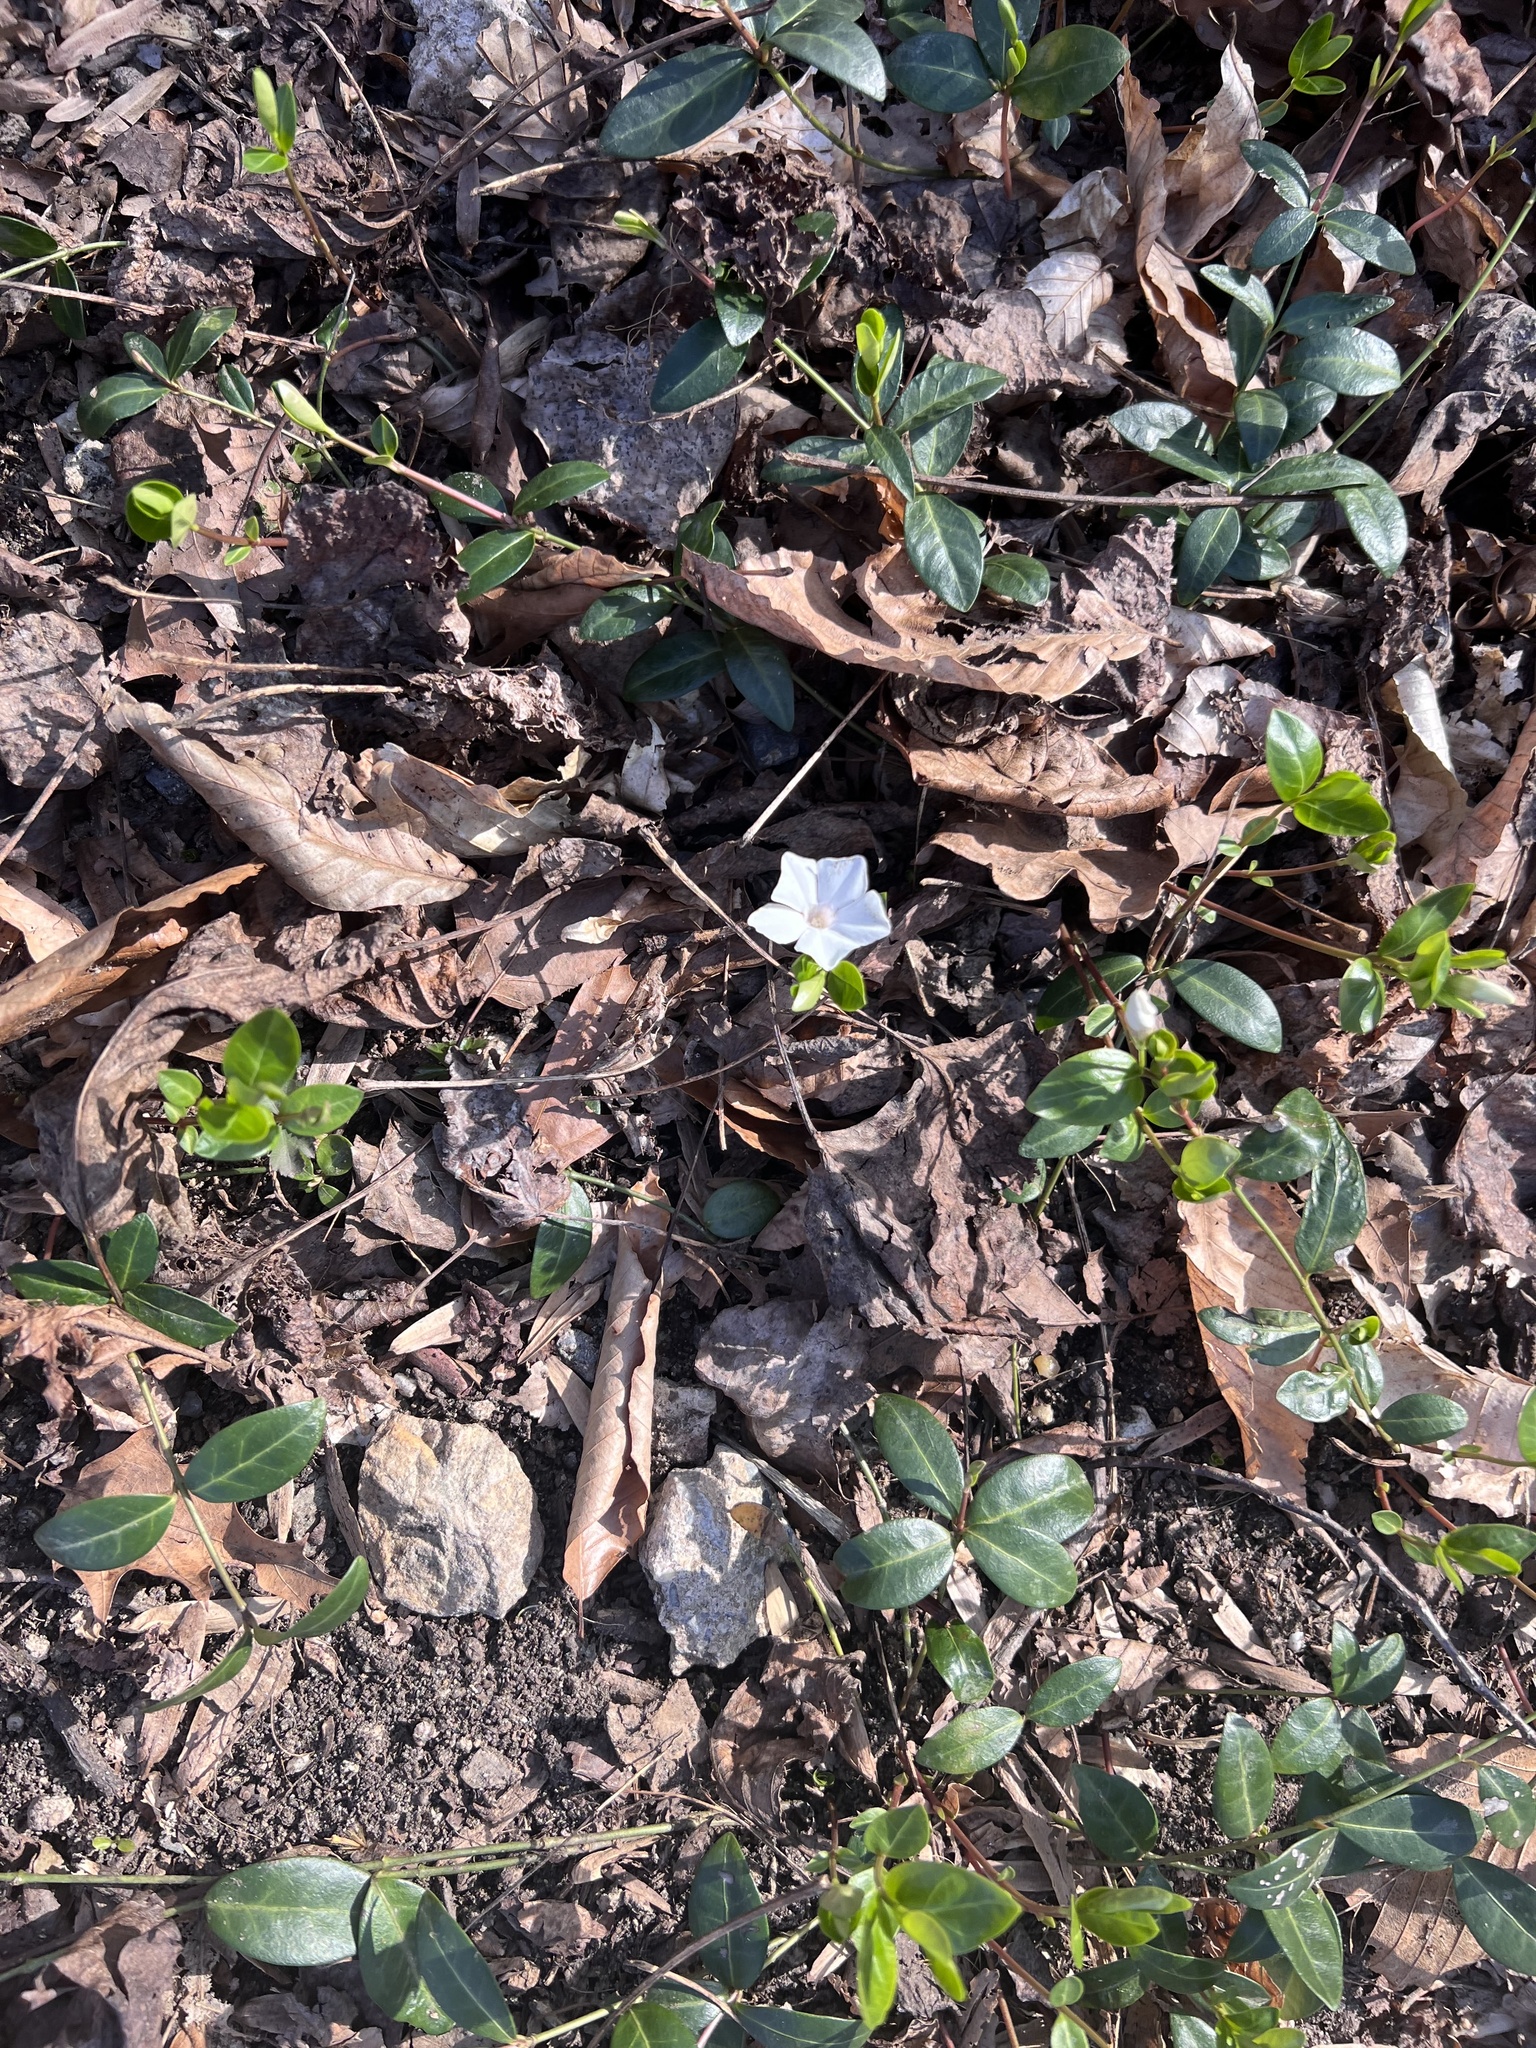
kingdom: Plantae
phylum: Tracheophyta
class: Magnoliopsida
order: Gentianales
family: Apocynaceae
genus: Vinca
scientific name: Vinca minor
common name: Lesser periwinkle
